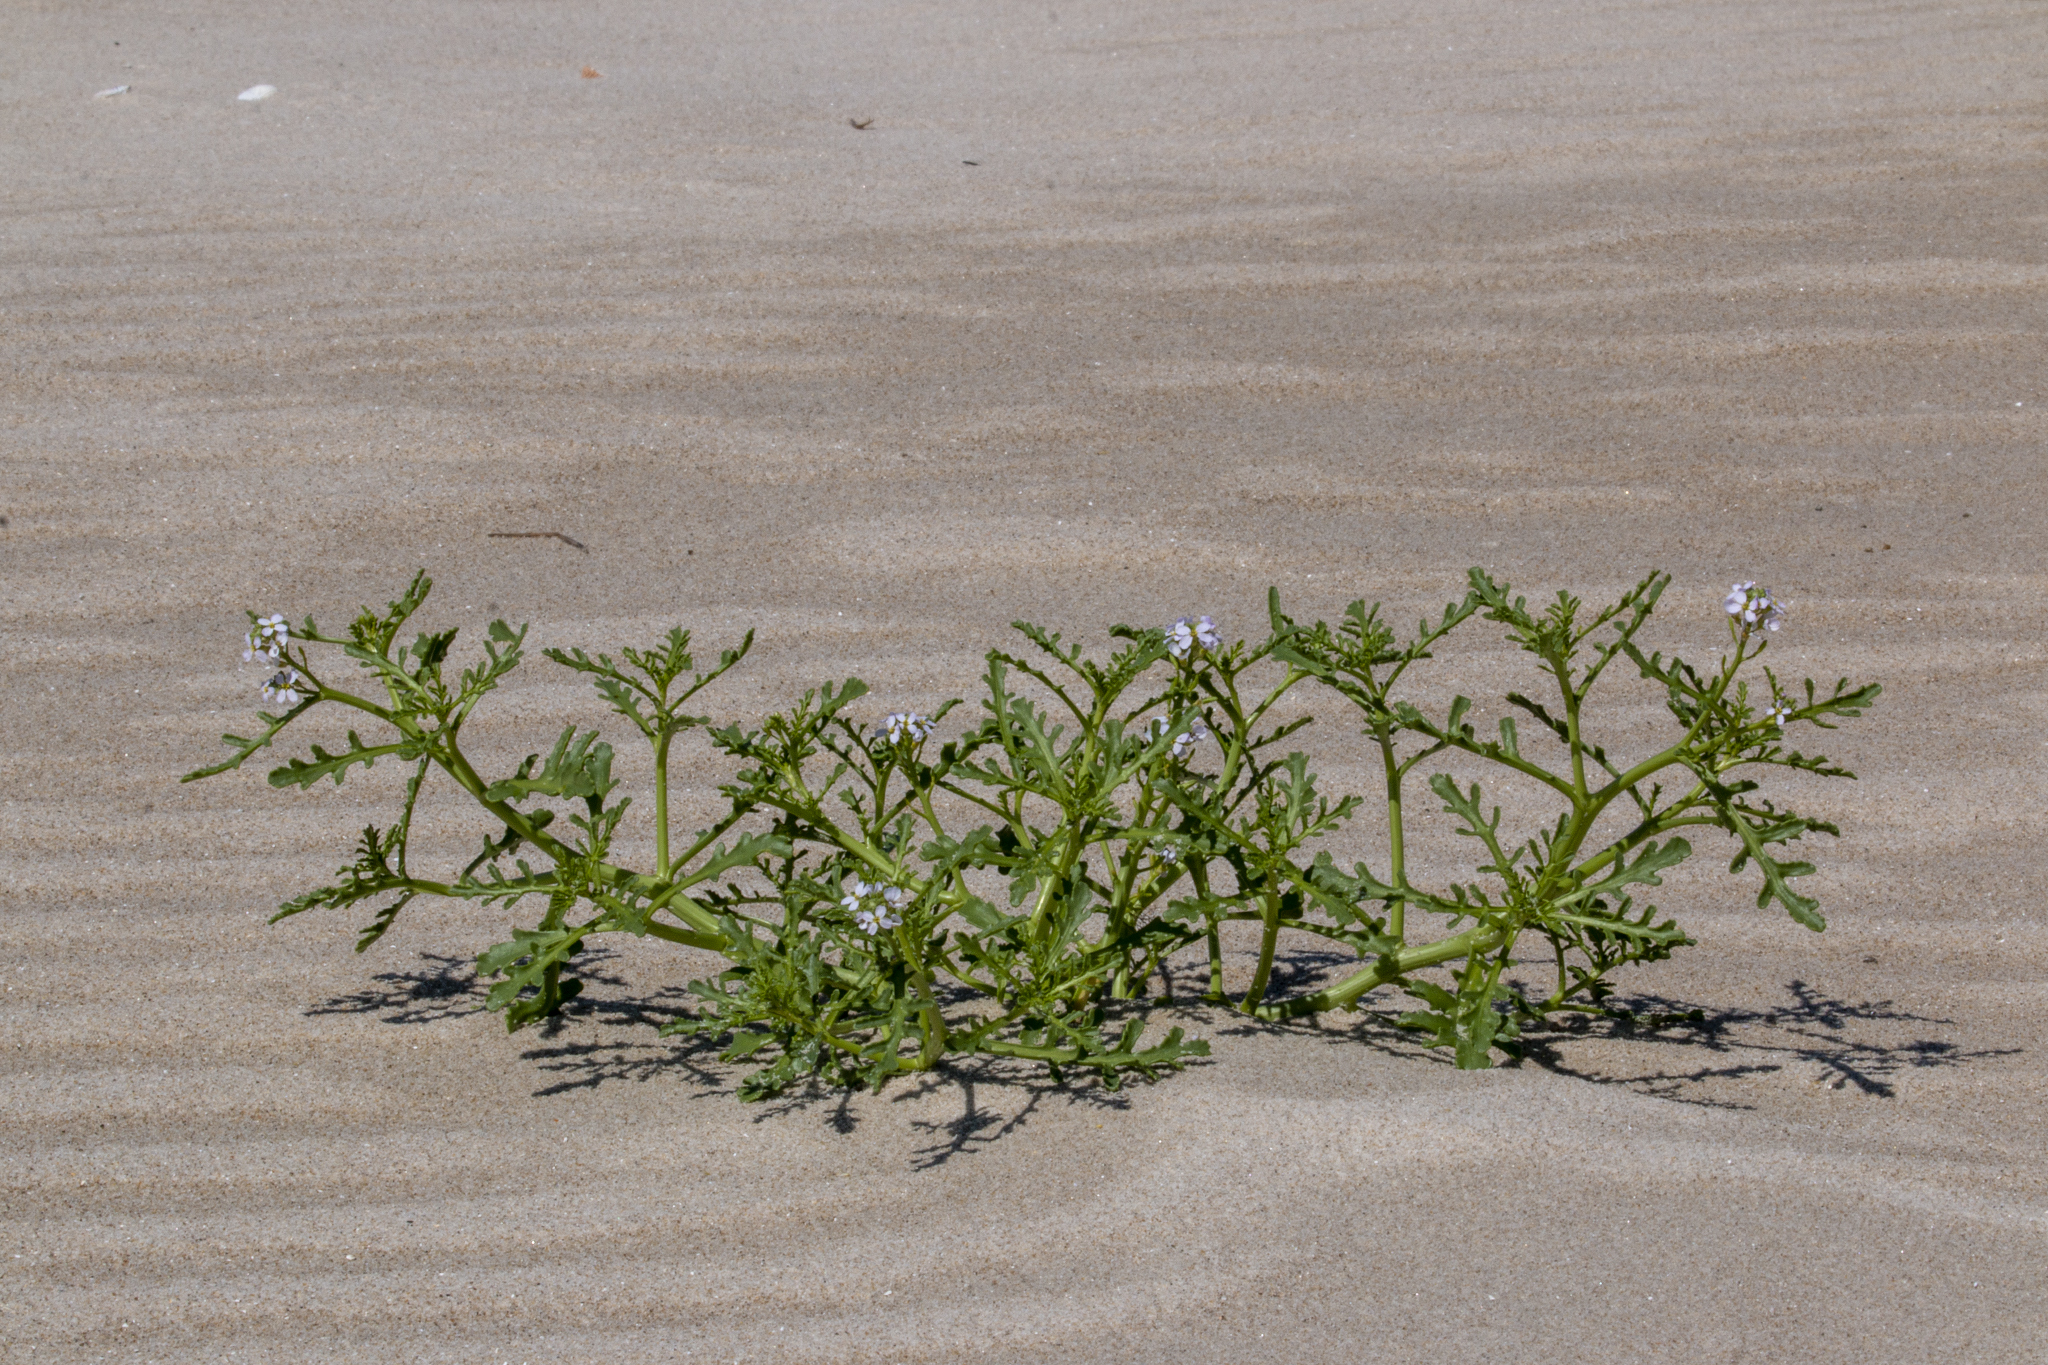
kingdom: Plantae
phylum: Tracheophyta
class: Magnoliopsida
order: Brassicales
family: Brassicaceae
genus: Cakile
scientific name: Cakile maritima
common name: Sea rocket
